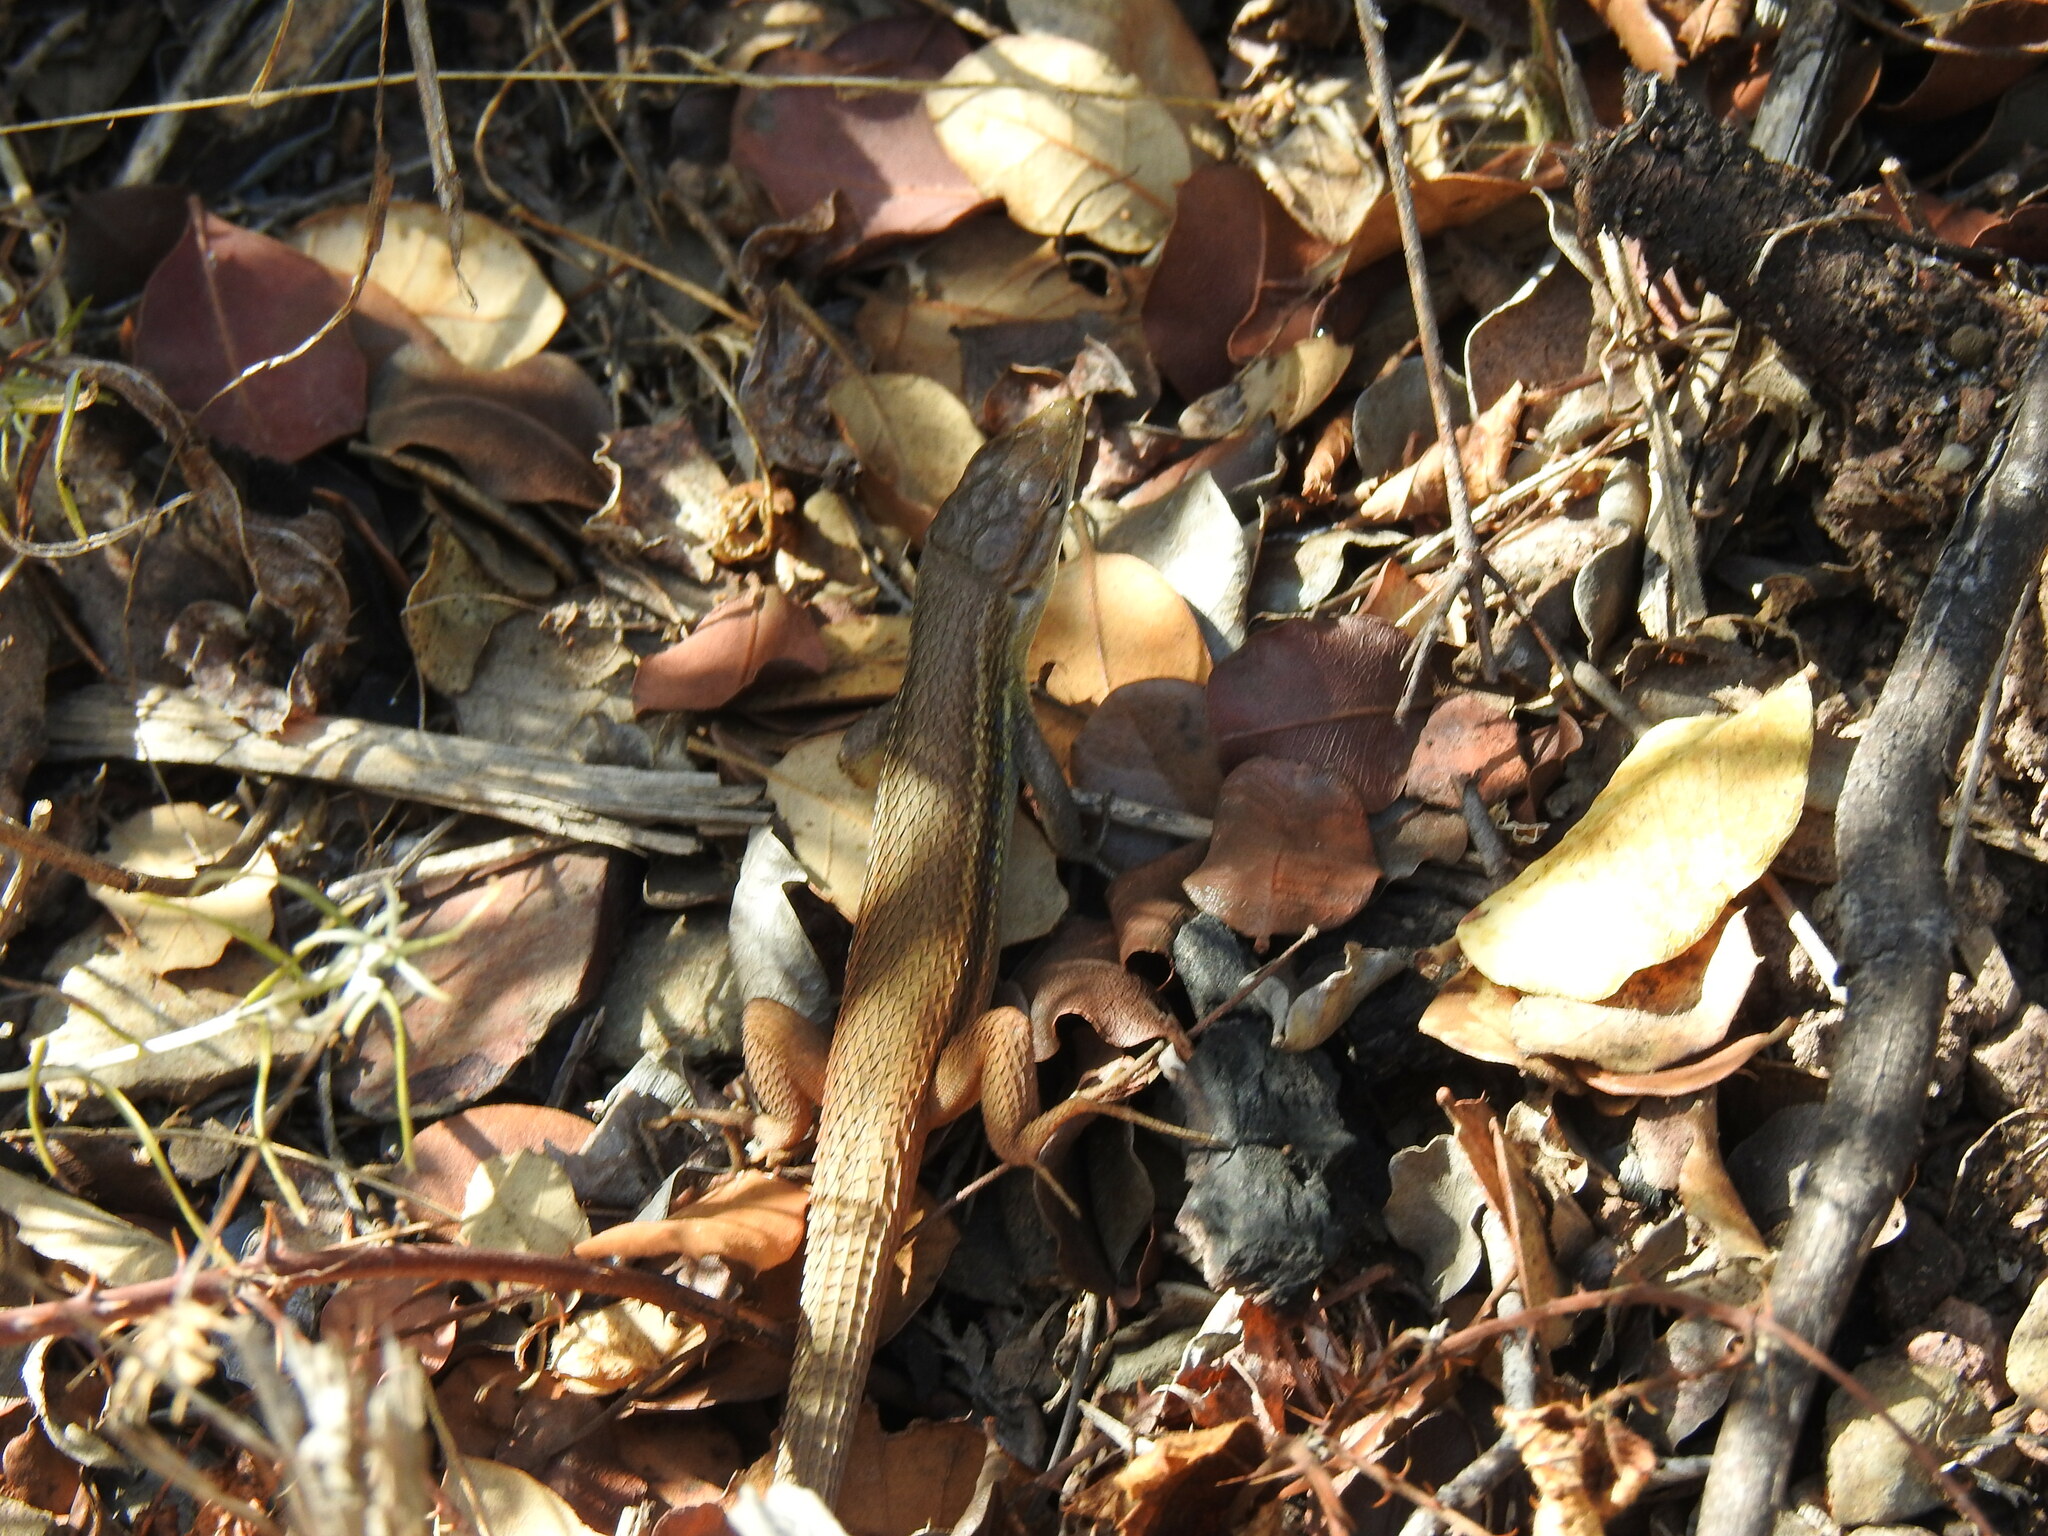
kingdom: Animalia
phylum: Chordata
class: Squamata
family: Lacertidae
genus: Psammodromus
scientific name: Psammodromus algirus
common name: Algerian psammodromus
